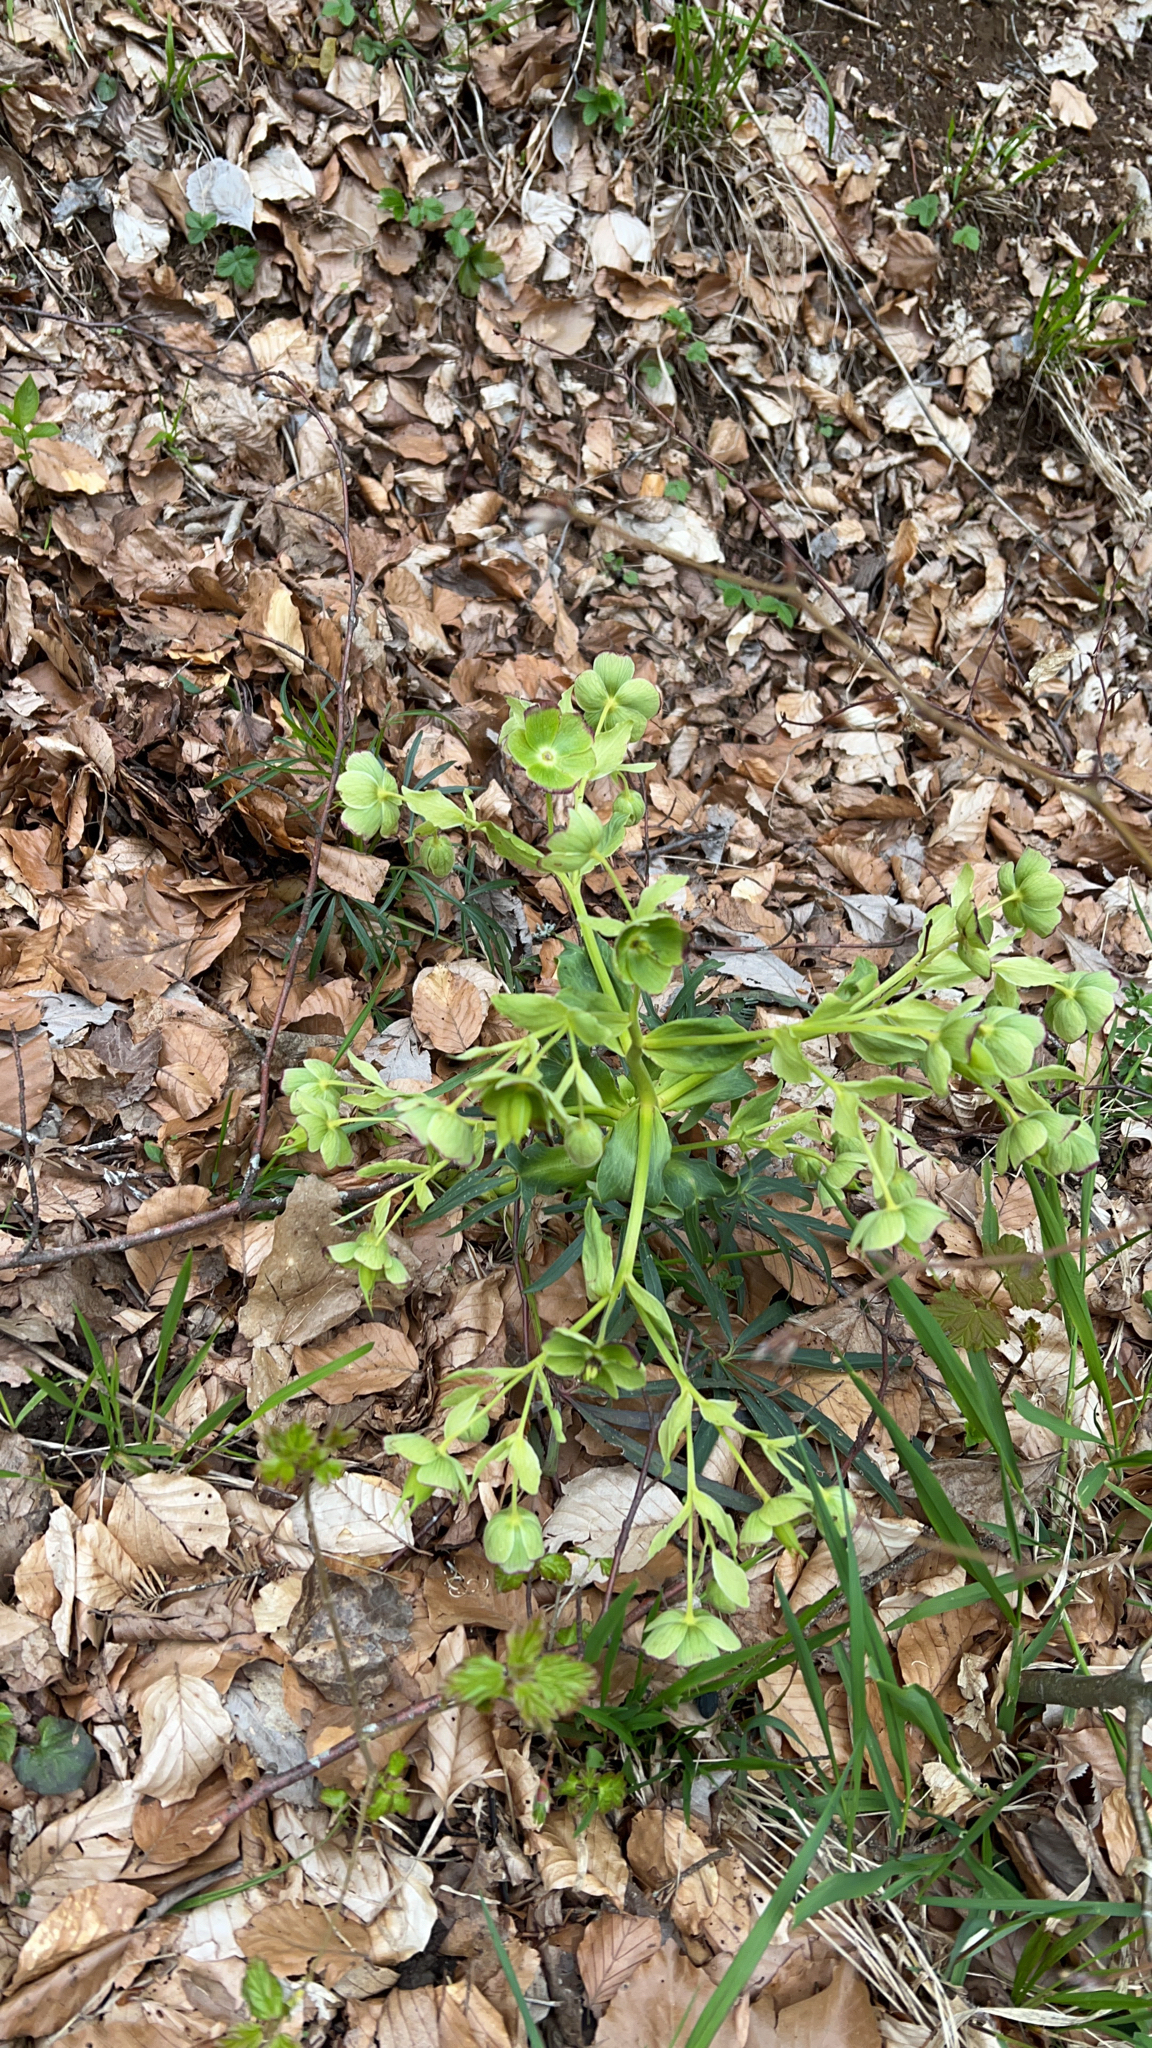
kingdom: Plantae
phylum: Tracheophyta
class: Magnoliopsida
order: Ranunculales
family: Ranunculaceae
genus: Helleborus
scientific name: Helleborus foetidus
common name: Stinking hellebore
